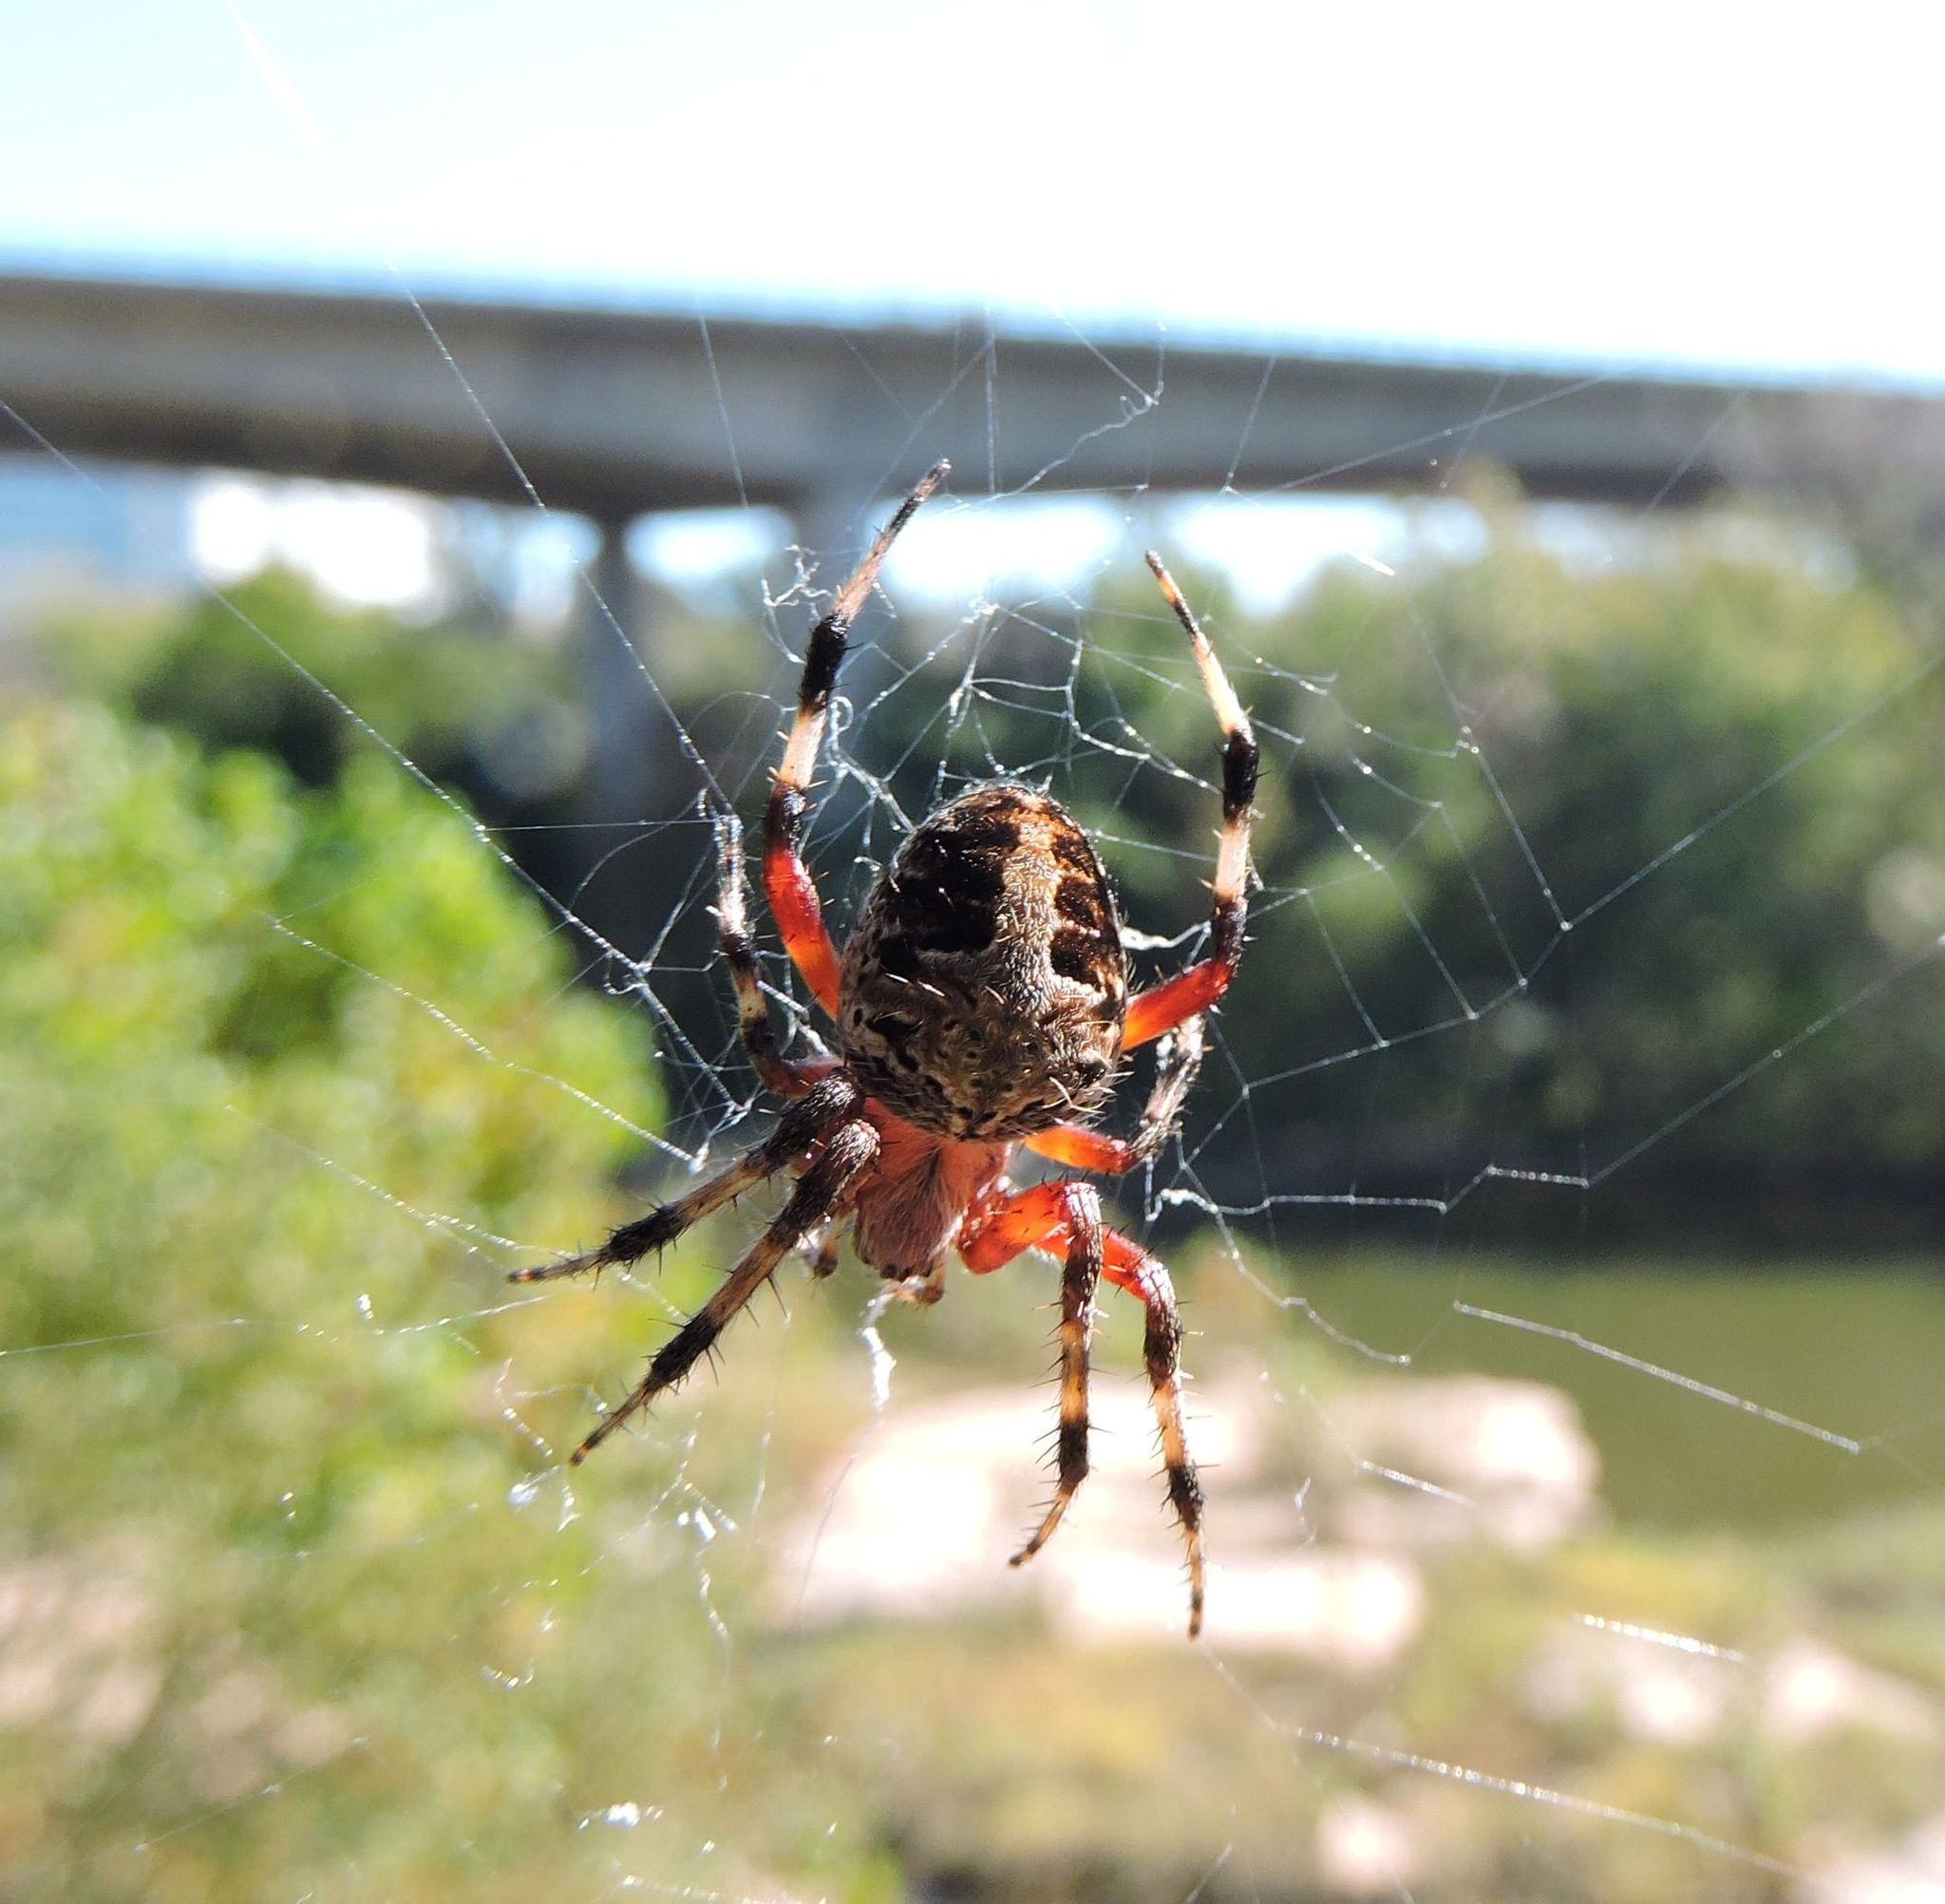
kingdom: Animalia
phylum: Arthropoda
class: Arachnida
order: Araneae
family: Araneidae
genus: Neoscona
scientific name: Neoscona domiciliorum
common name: Red-femured spotted orbweaver
